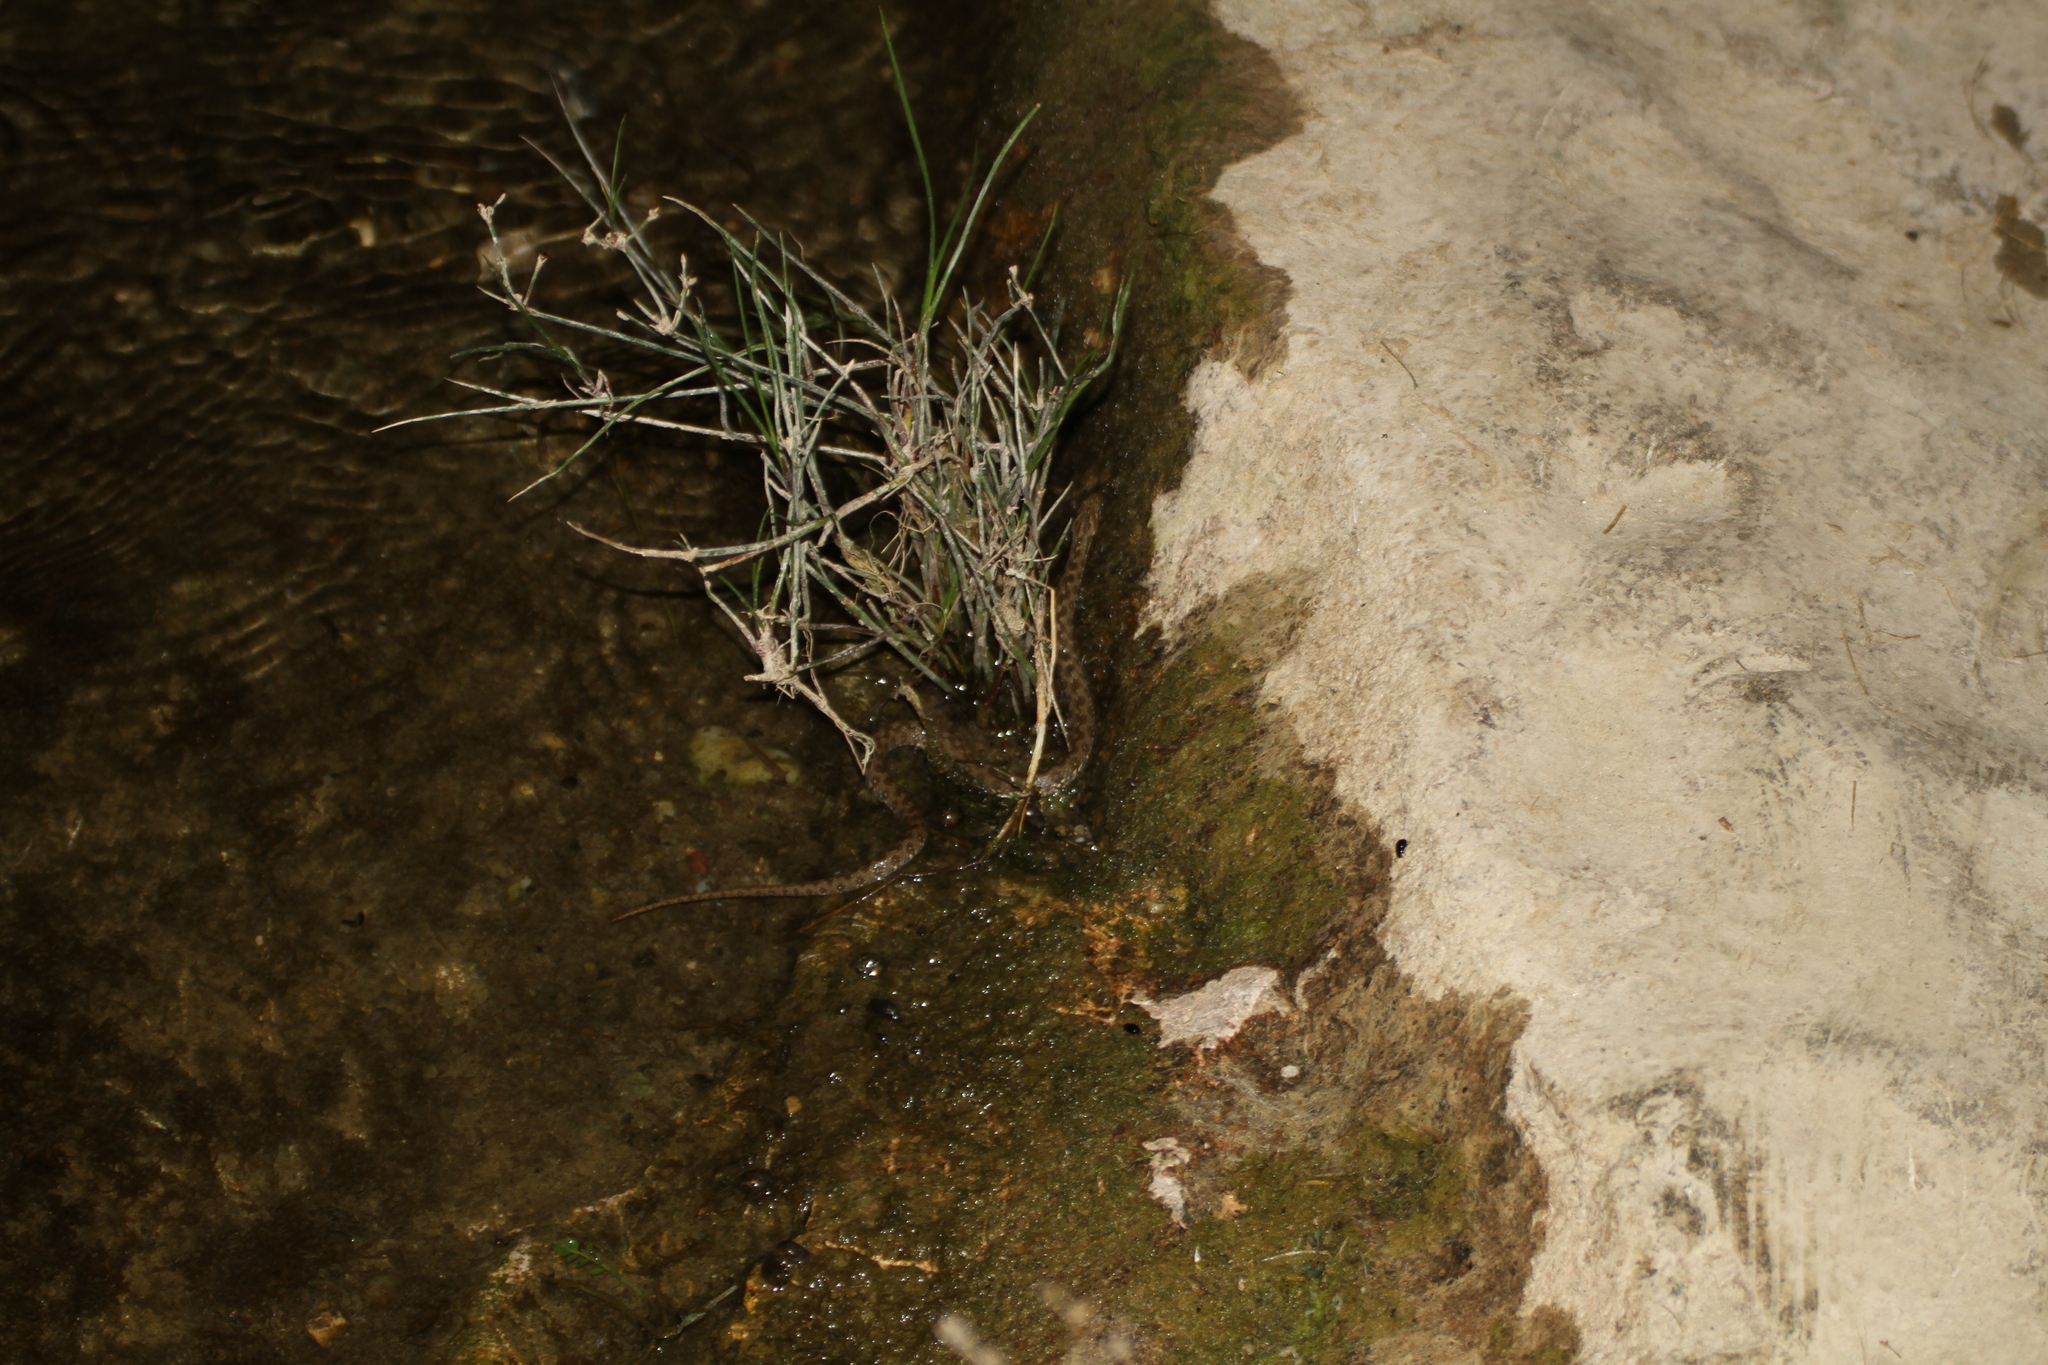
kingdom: Animalia
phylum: Chordata
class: Squamata
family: Colubridae
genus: Natrix
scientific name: Natrix maura
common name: Viperine water snake
